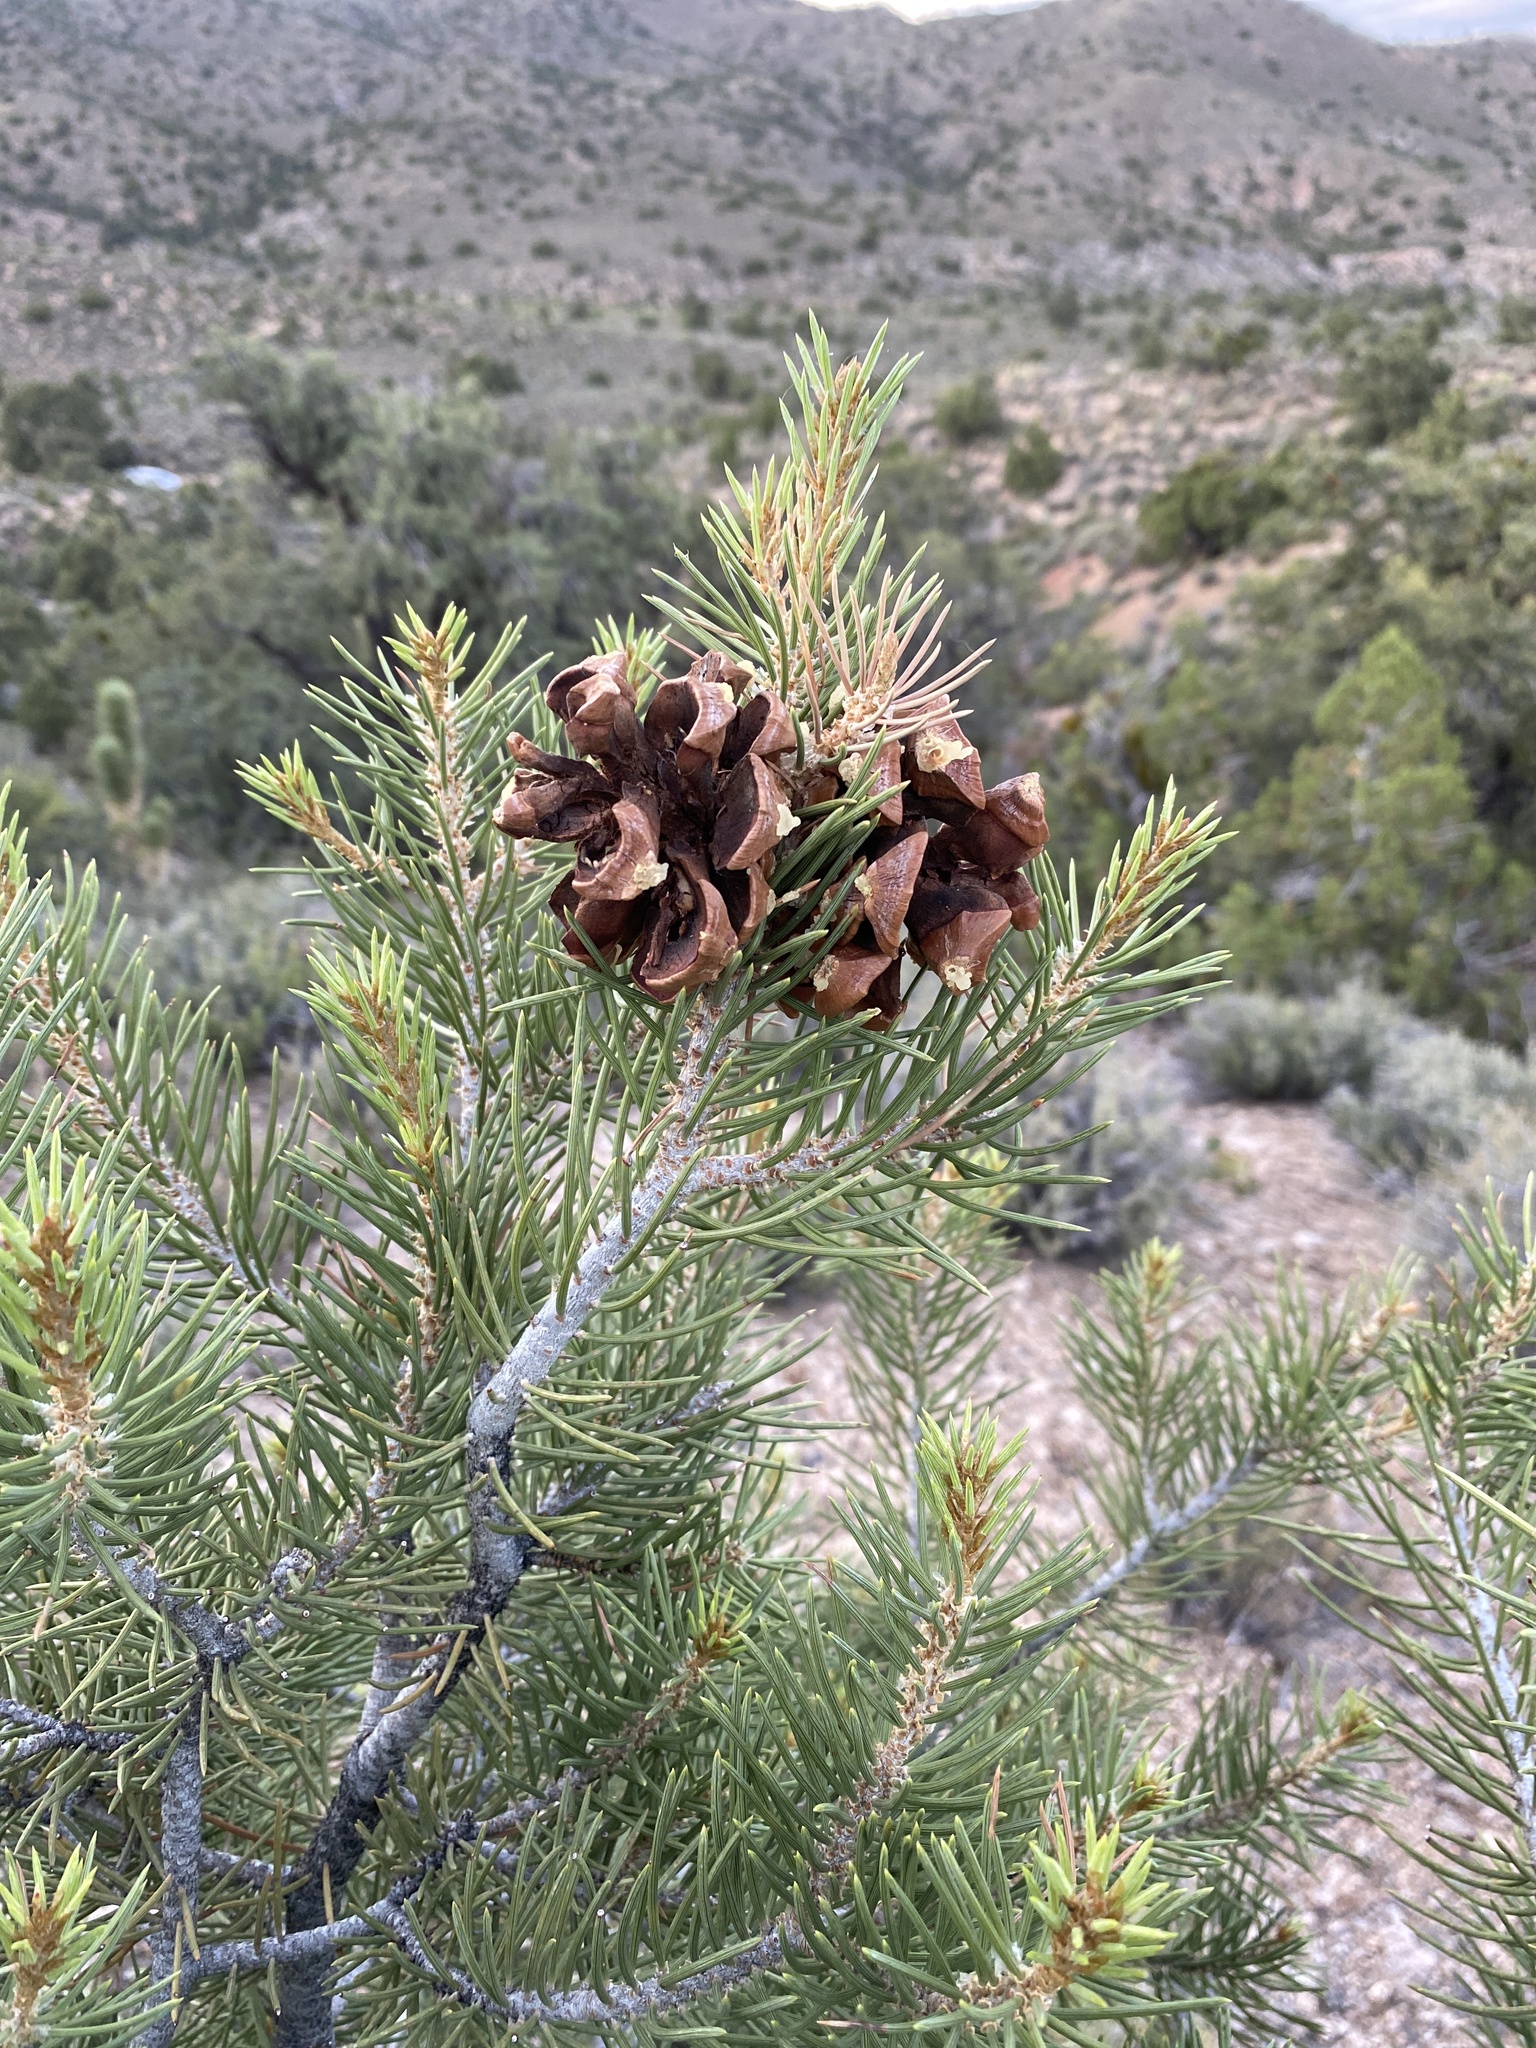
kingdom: Plantae
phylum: Tracheophyta
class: Pinopsida
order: Pinales
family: Pinaceae
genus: Pinus
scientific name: Pinus monophylla
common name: One-leaved nut pine
